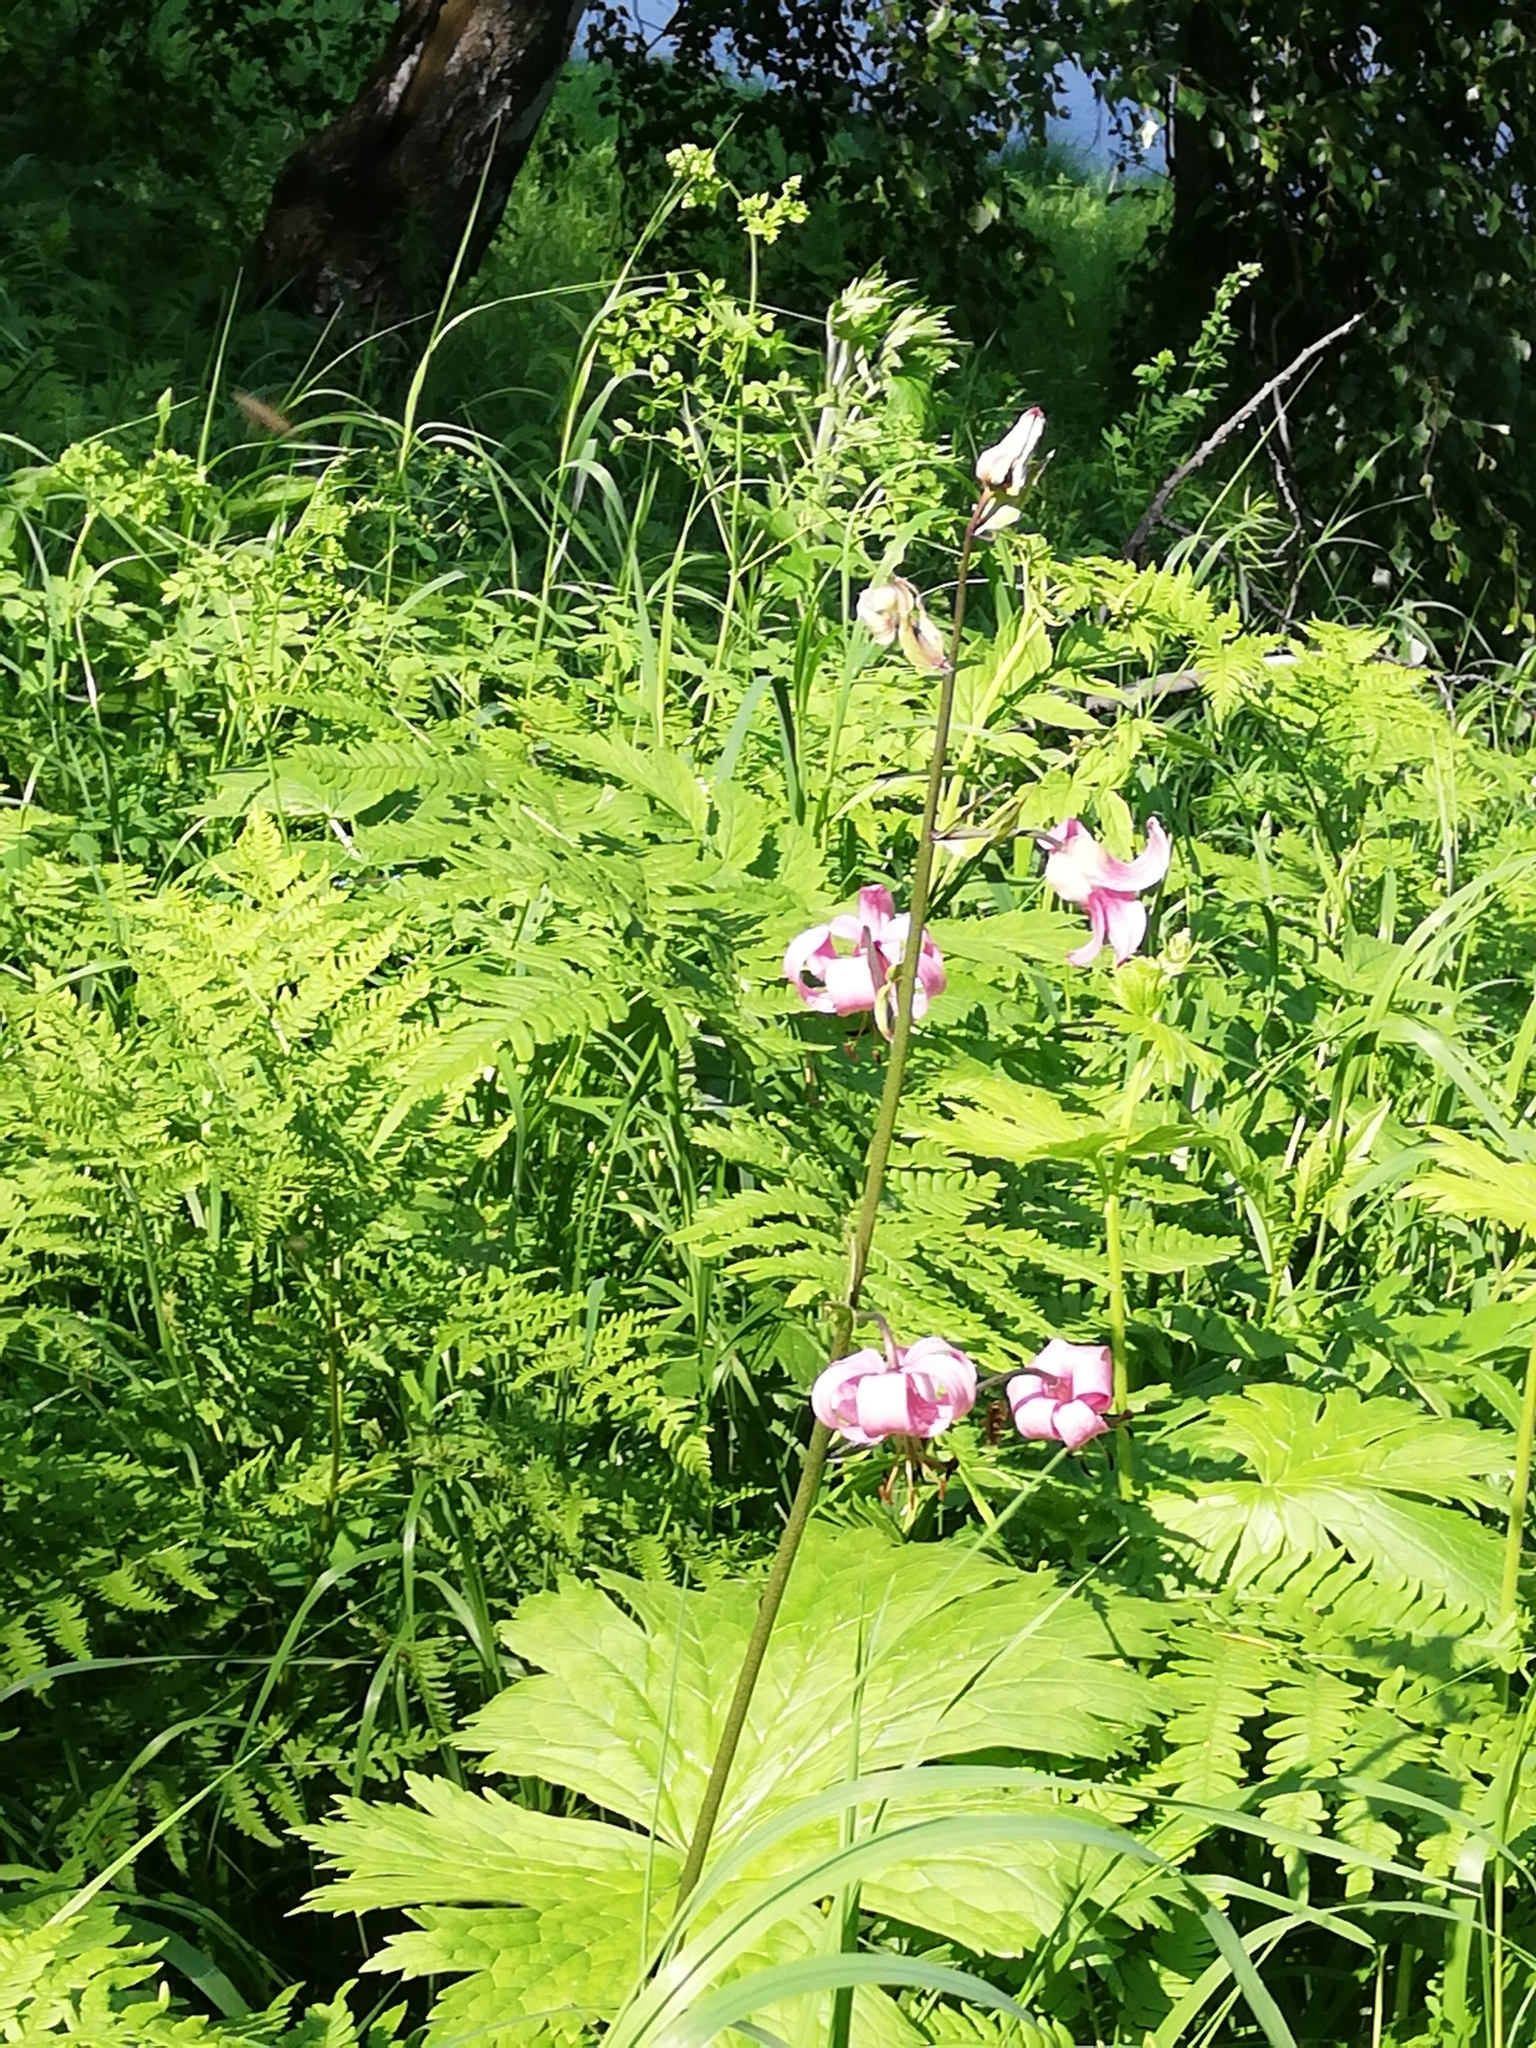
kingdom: Plantae
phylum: Tracheophyta
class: Liliopsida
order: Liliales
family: Liliaceae
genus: Lilium
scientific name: Lilium martagon
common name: Martagon lily
